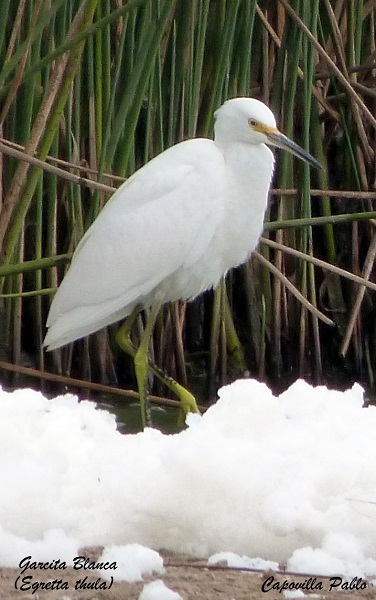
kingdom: Animalia
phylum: Chordata
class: Aves
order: Pelecaniformes
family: Ardeidae
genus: Egretta
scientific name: Egretta thula
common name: Snowy egret
